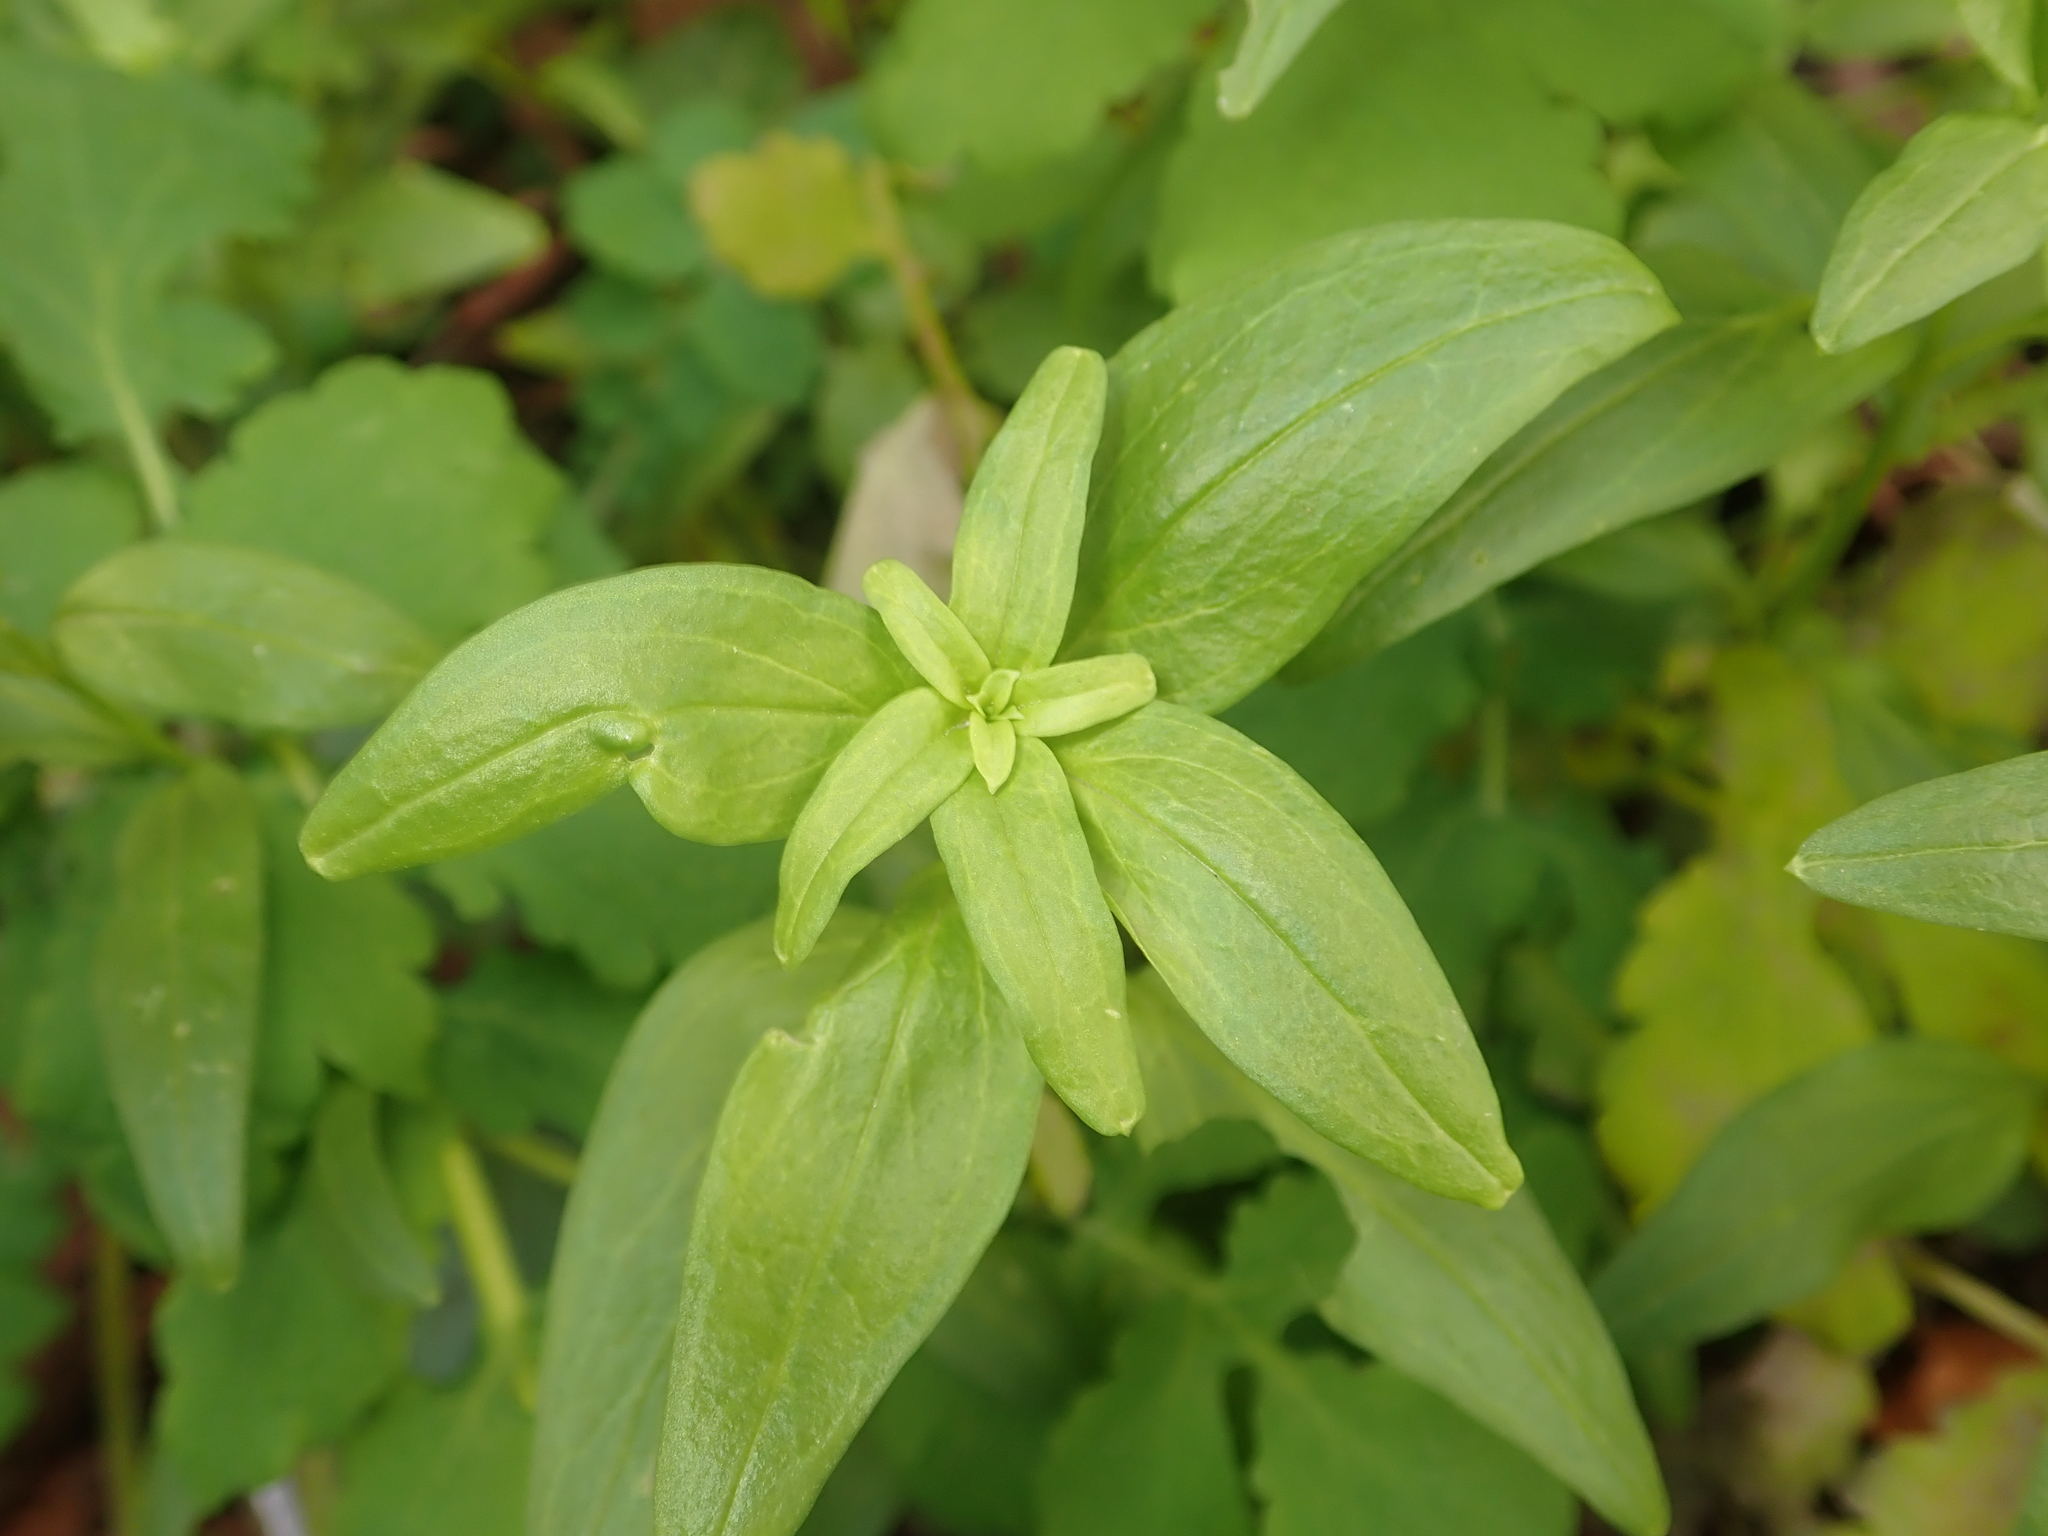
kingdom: Plantae
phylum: Tracheophyta
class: Magnoliopsida
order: Lamiales
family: Plantaginaceae
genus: Antirrhinum
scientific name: Antirrhinum majus
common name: Snapdragon
